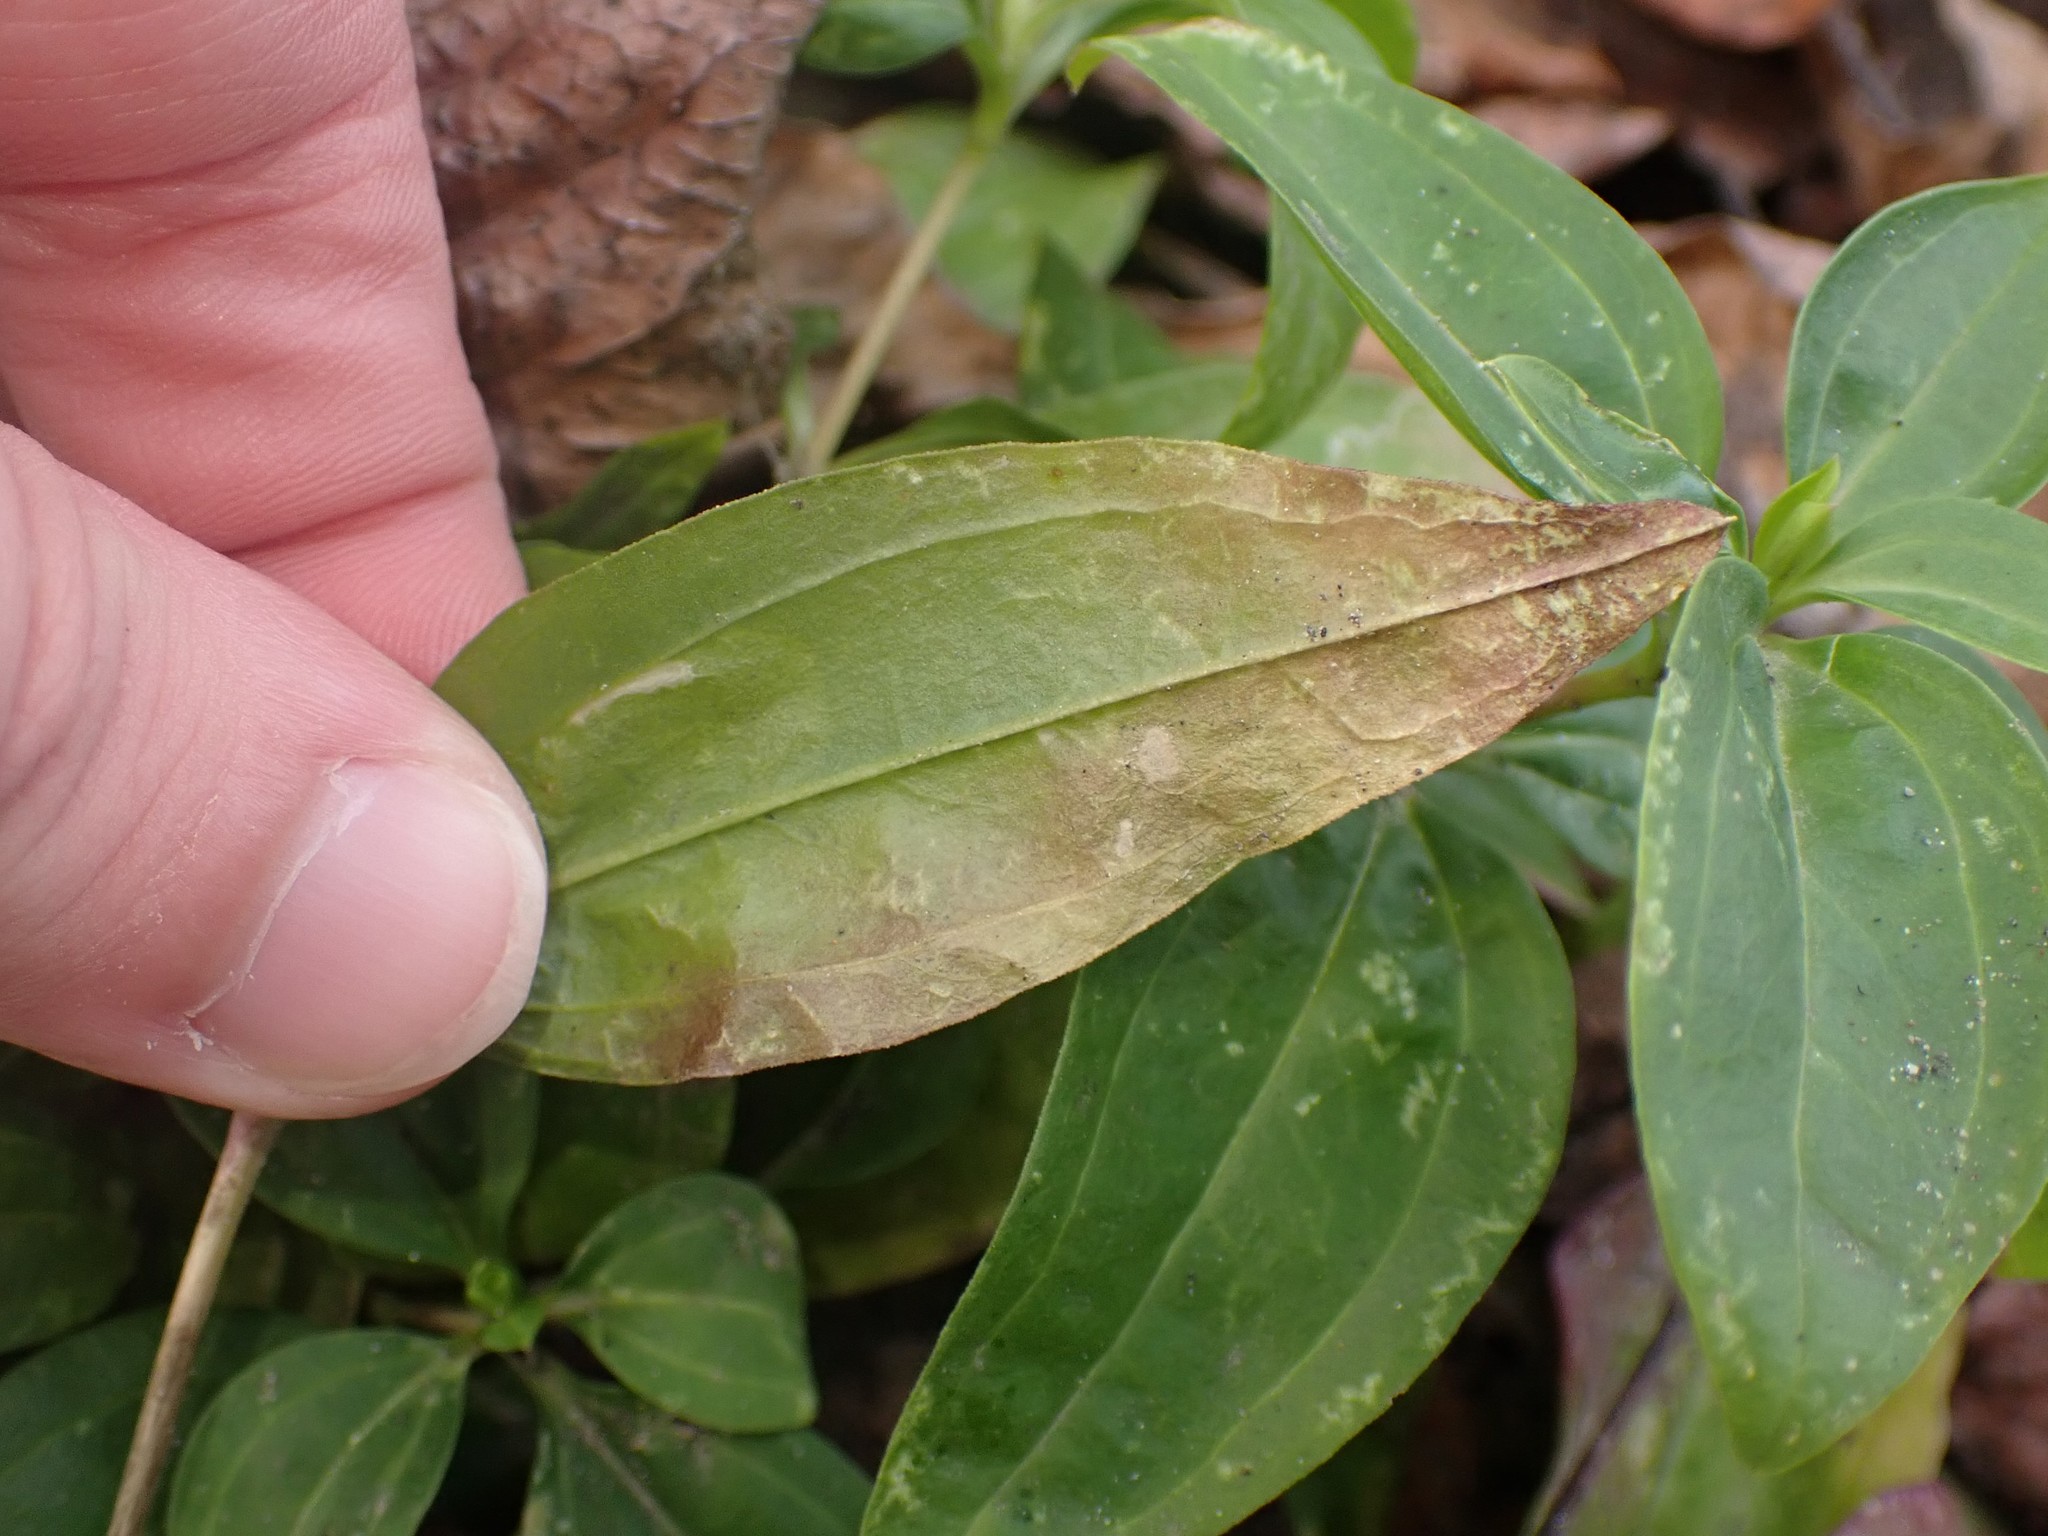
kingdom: Animalia
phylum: Arthropoda
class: Insecta
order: Diptera
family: Agromyzidae
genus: Amauromyza
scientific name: Amauromyza flavifrons
